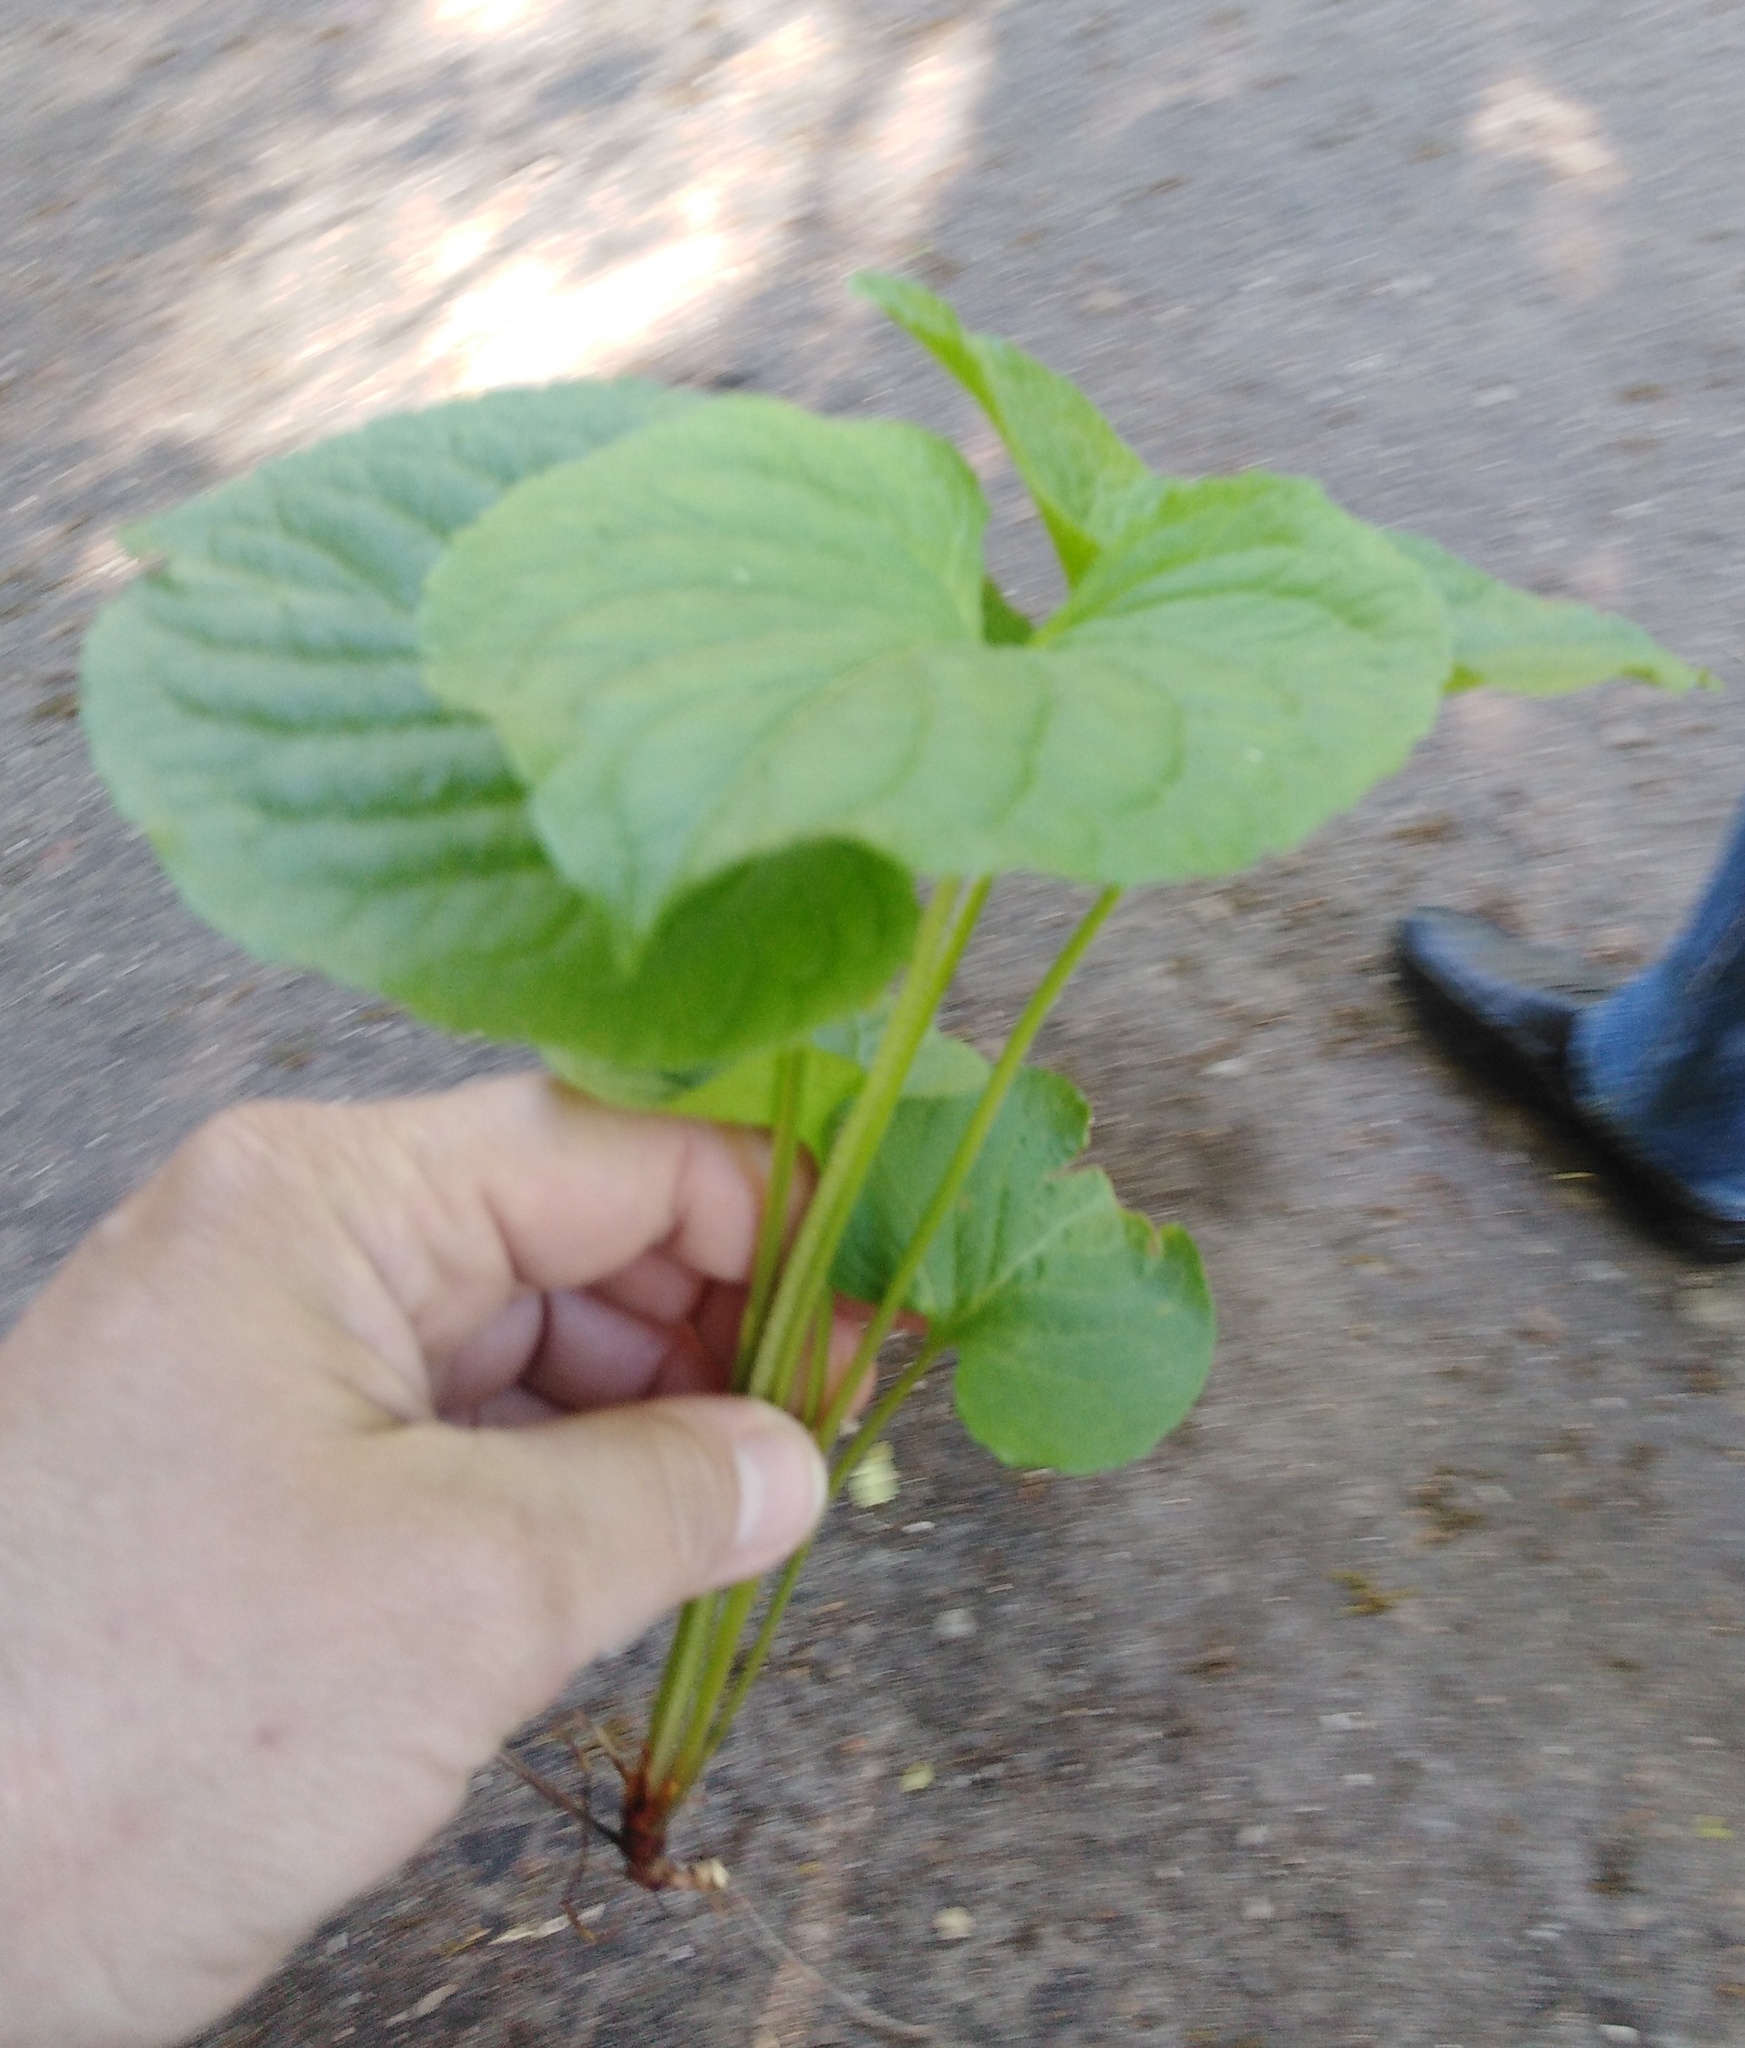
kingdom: Plantae
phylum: Tracheophyta
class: Magnoliopsida
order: Malpighiales
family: Violaceae
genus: Viola
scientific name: Viola mirabilis
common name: Wonder violet
